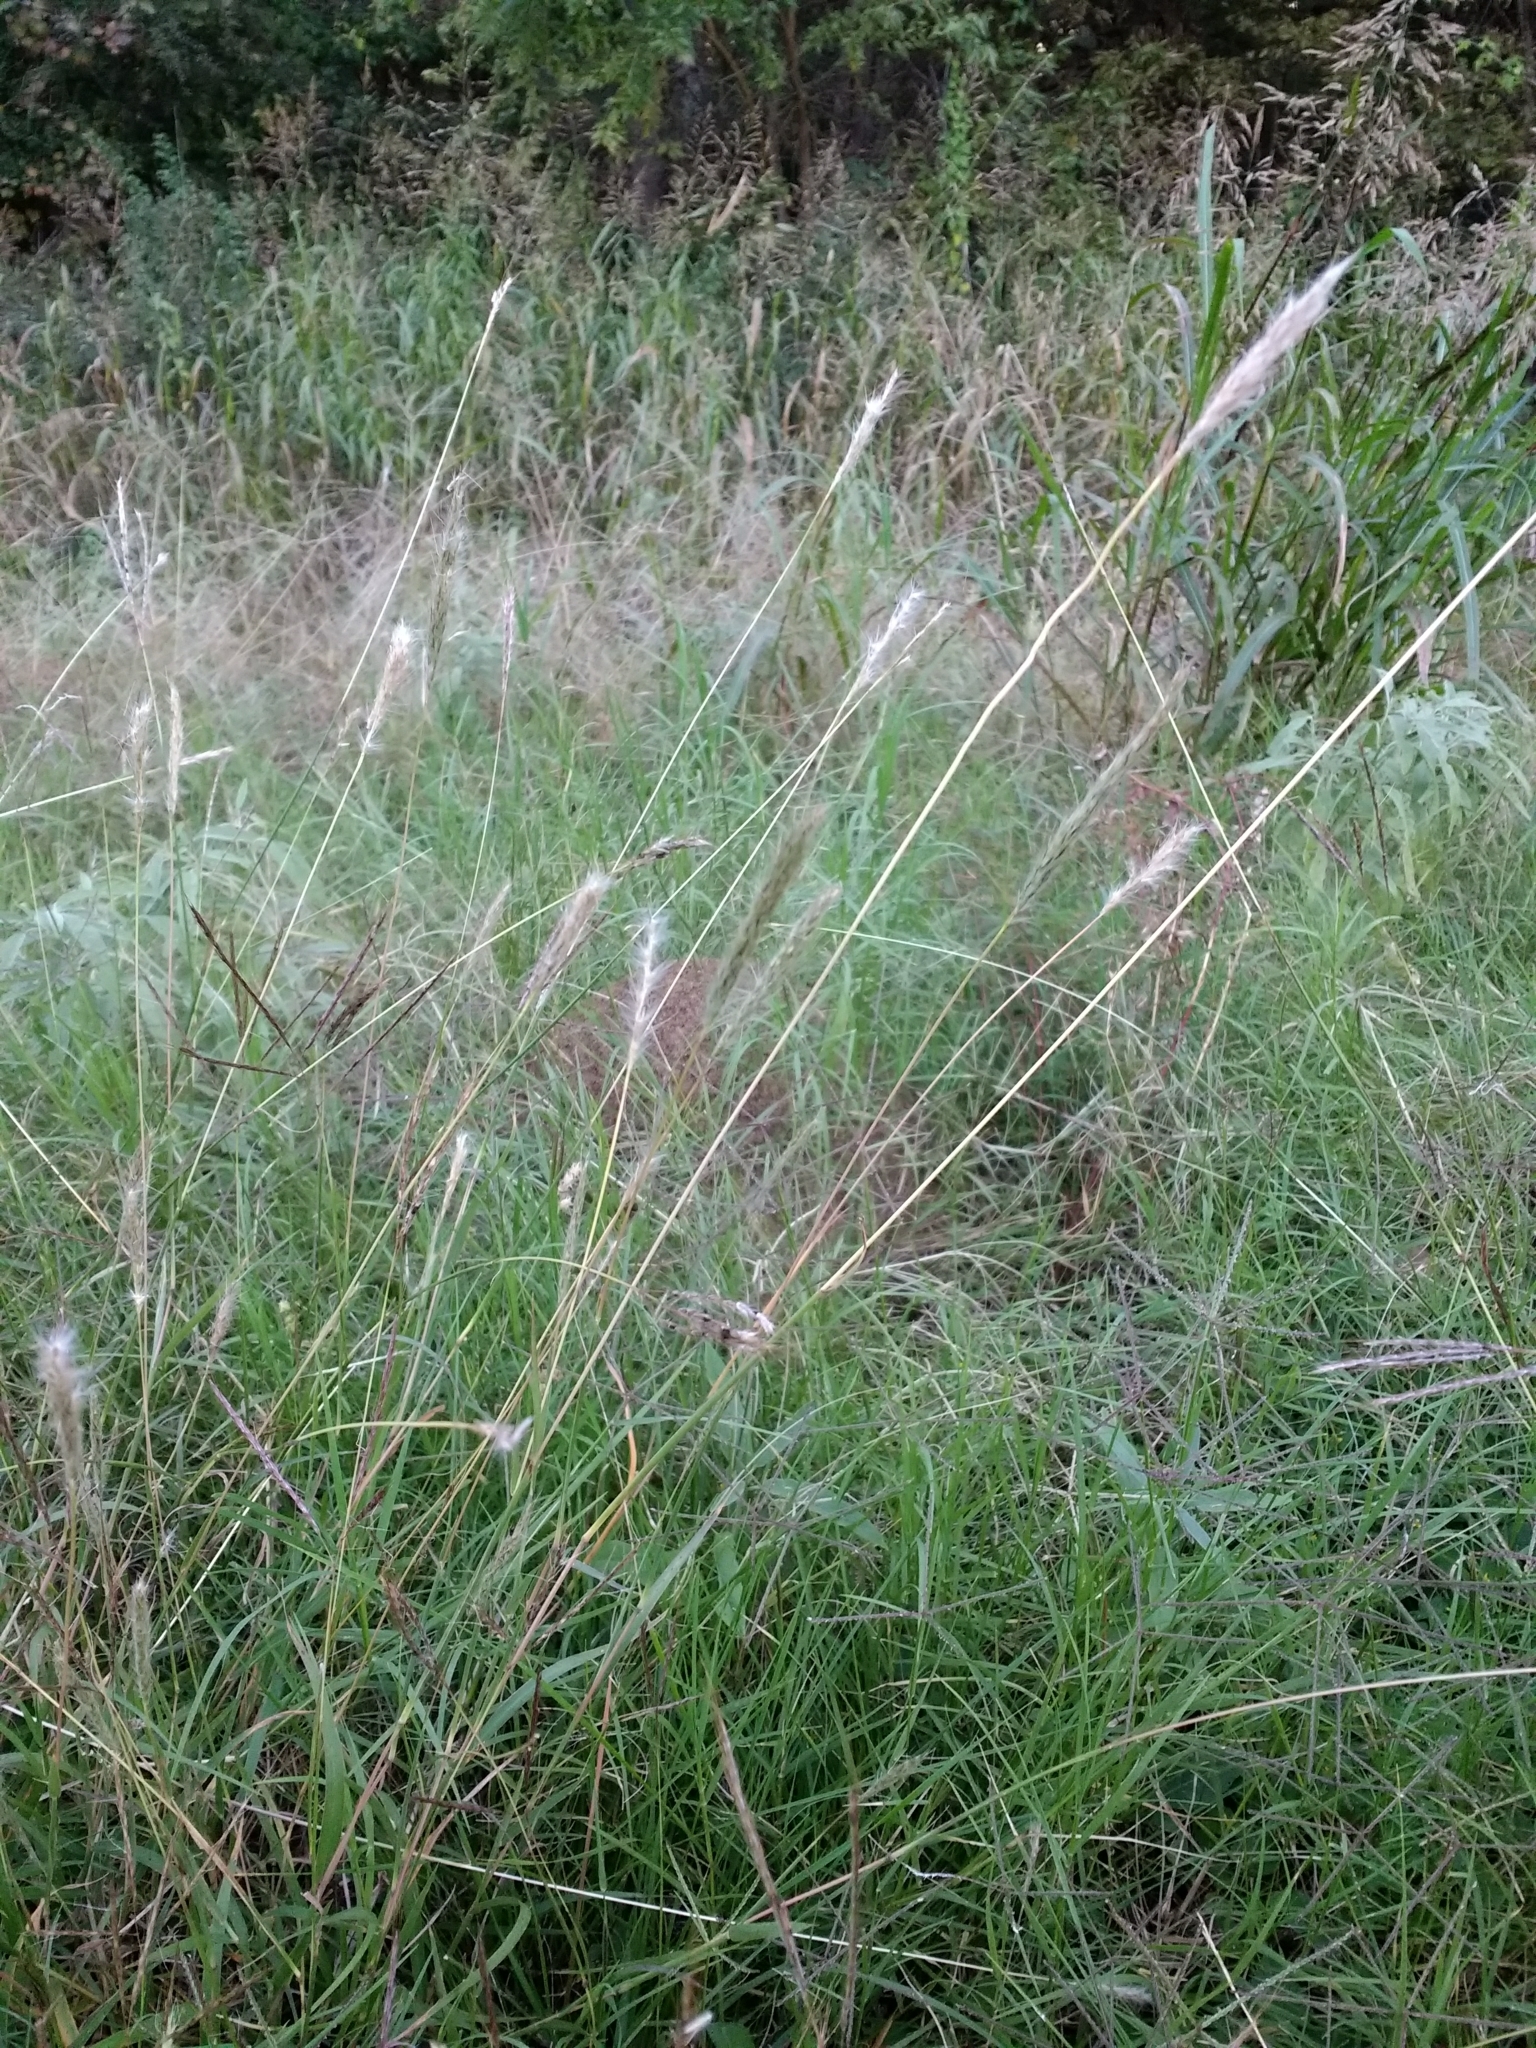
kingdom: Plantae
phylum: Tracheophyta
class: Liliopsida
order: Poales
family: Poaceae
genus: Bothriochloa
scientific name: Bothriochloa torreyana
